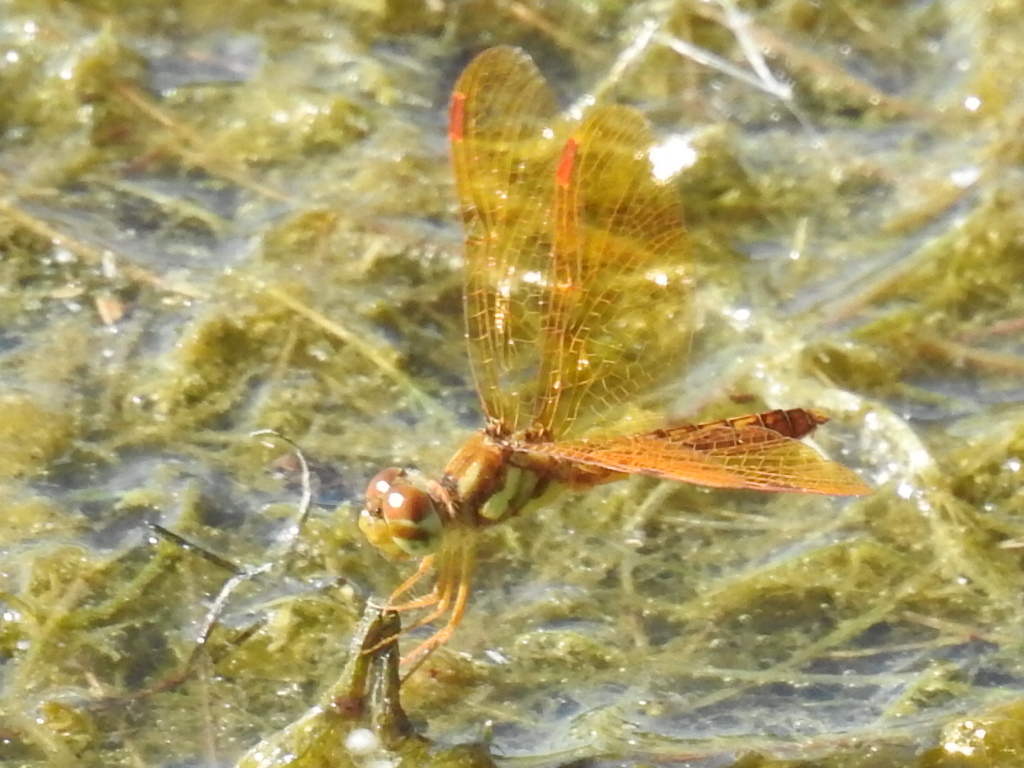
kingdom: Animalia
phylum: Arthropoda
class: Insecta
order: Odonata
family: Libellulidae
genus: Perithemis
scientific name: Perithemis tenera
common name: Eastern amberwing
